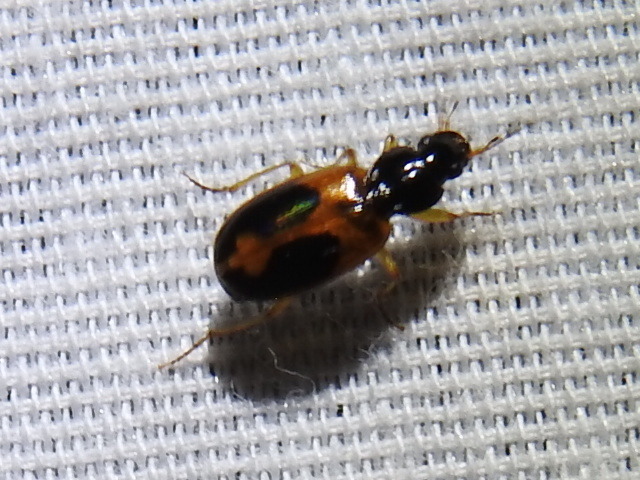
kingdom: Animalia
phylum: Arthropoda
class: Insecta
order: Coleoptera
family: Carabidae
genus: Badister
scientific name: Badister elegans
